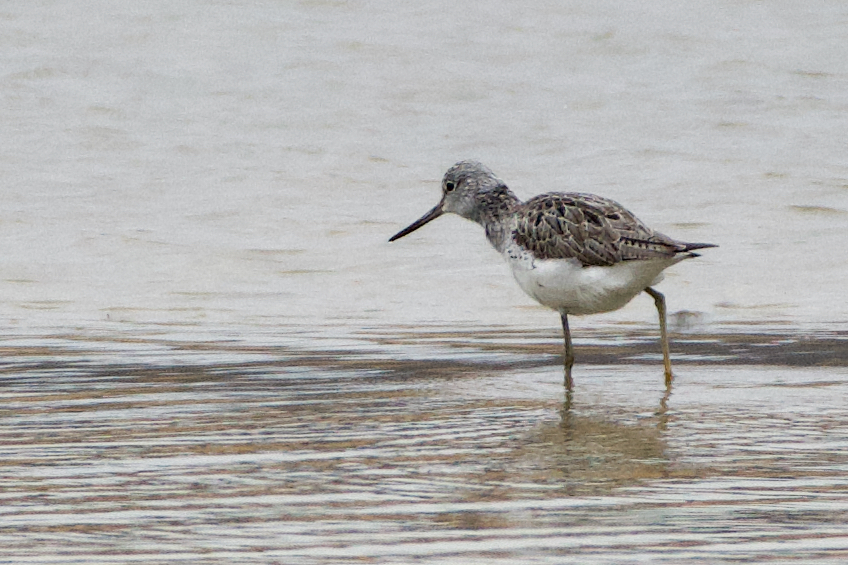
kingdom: Animalia
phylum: Chordata
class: Aves
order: Charadriiformes
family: Scolopacidae
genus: Tringa
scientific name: Tringa nebularia
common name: Common greenshank
